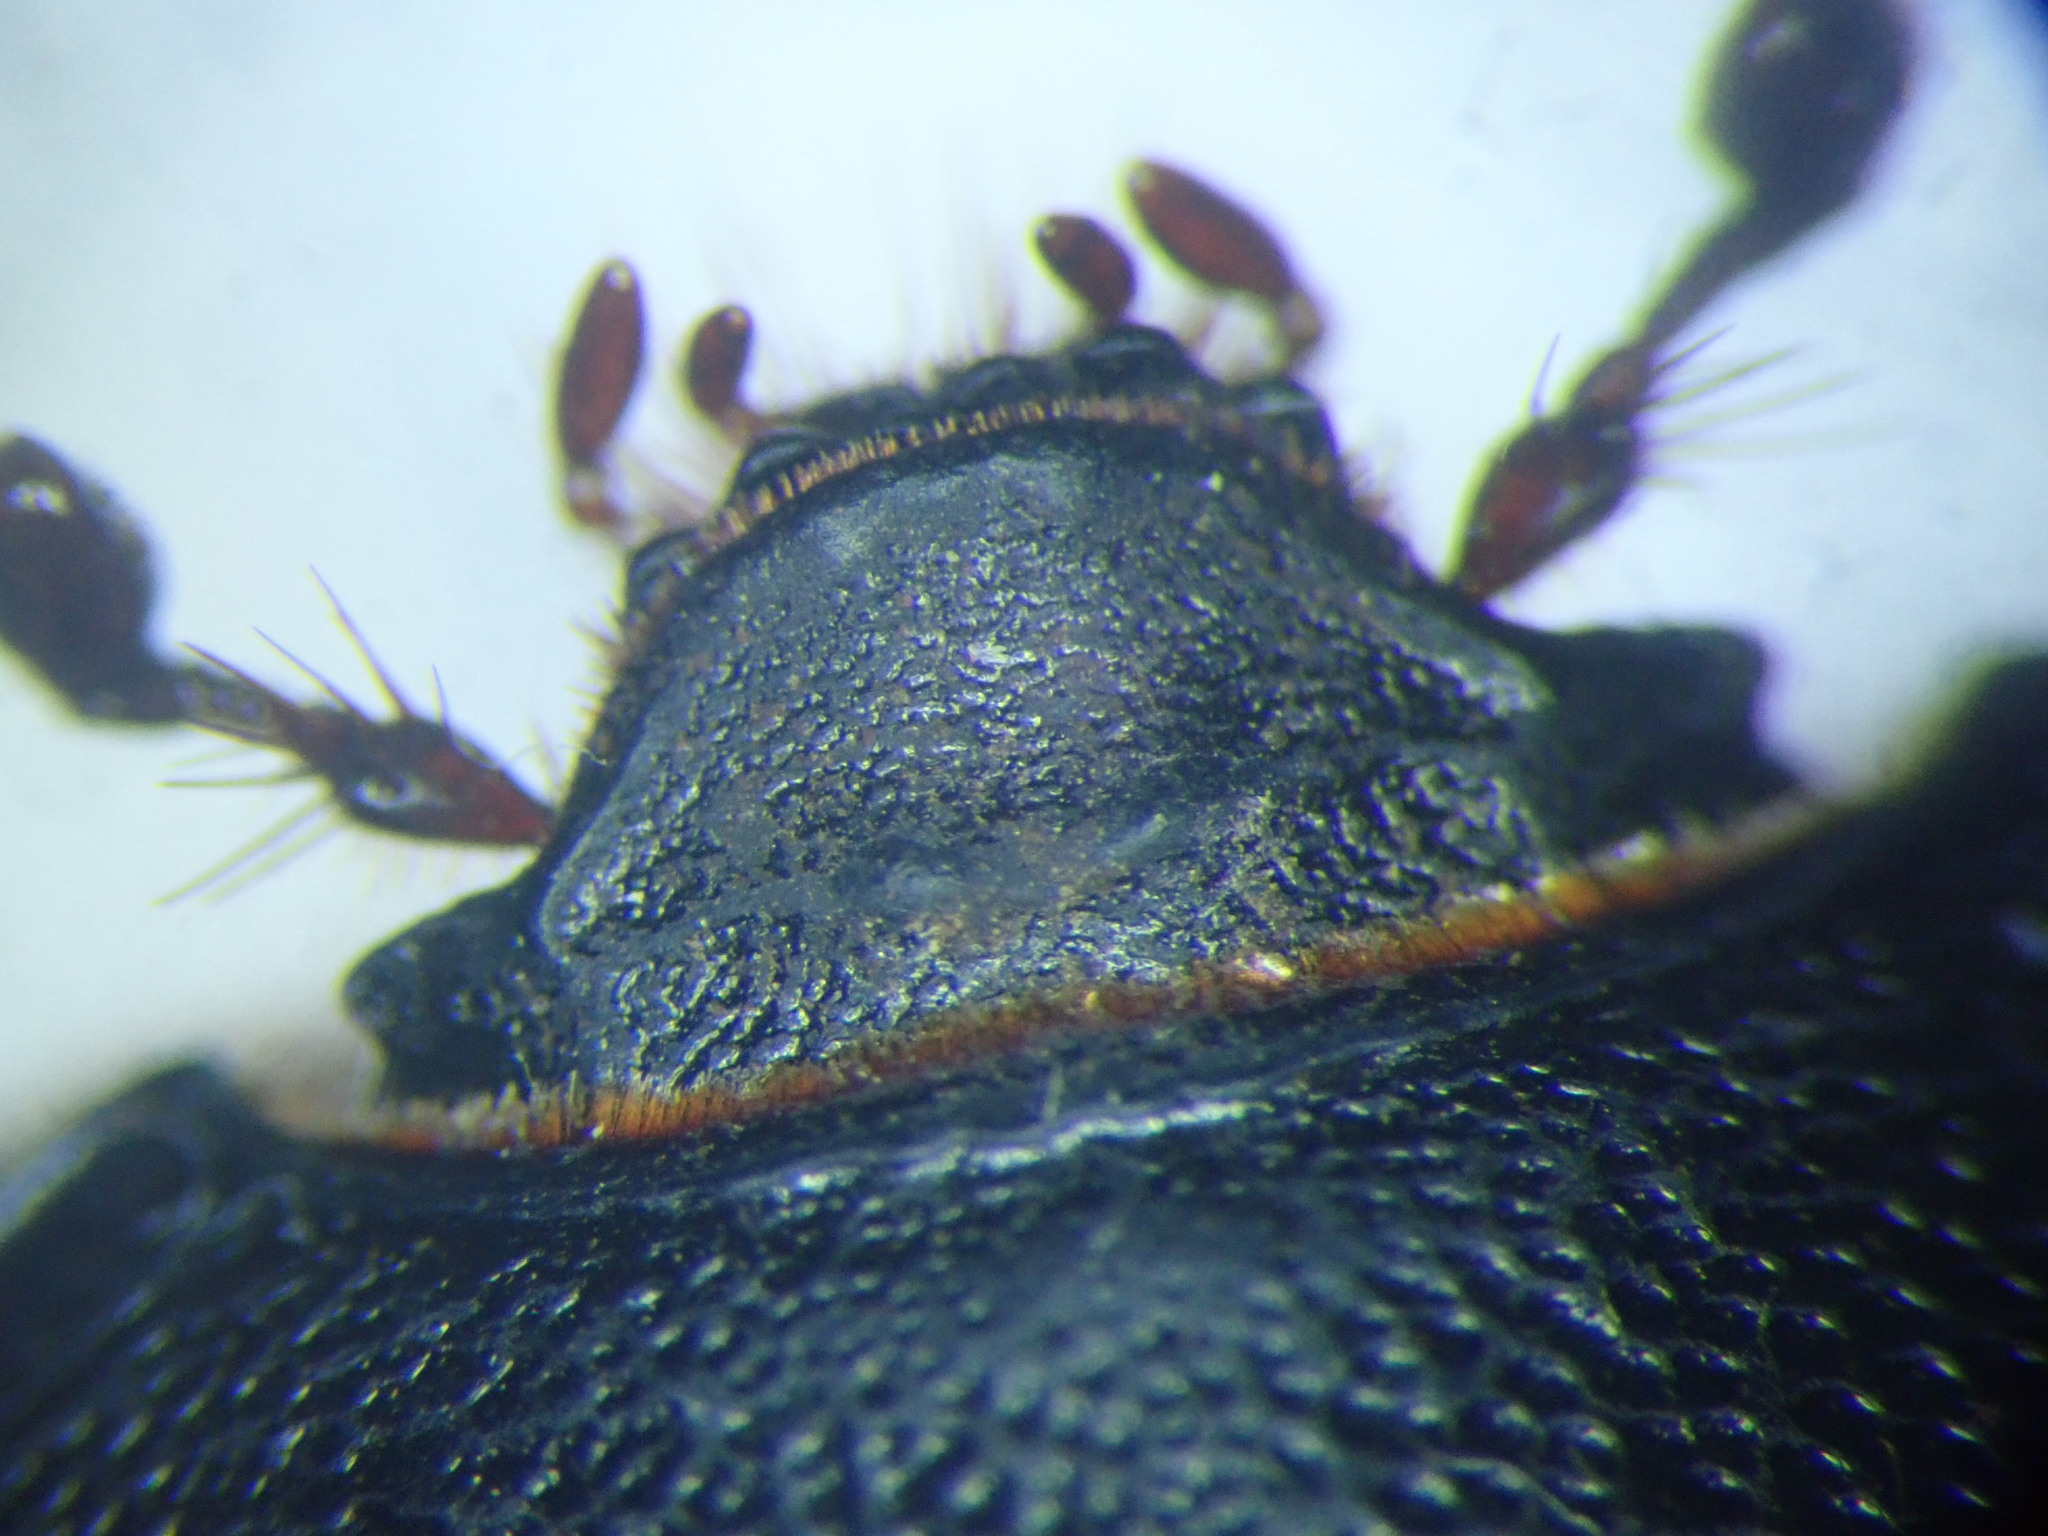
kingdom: Animalia
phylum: Arthropoda
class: Insecta
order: Coleoptera
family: Scarabaeidae
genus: Pentodon
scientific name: Pentodon bidens
